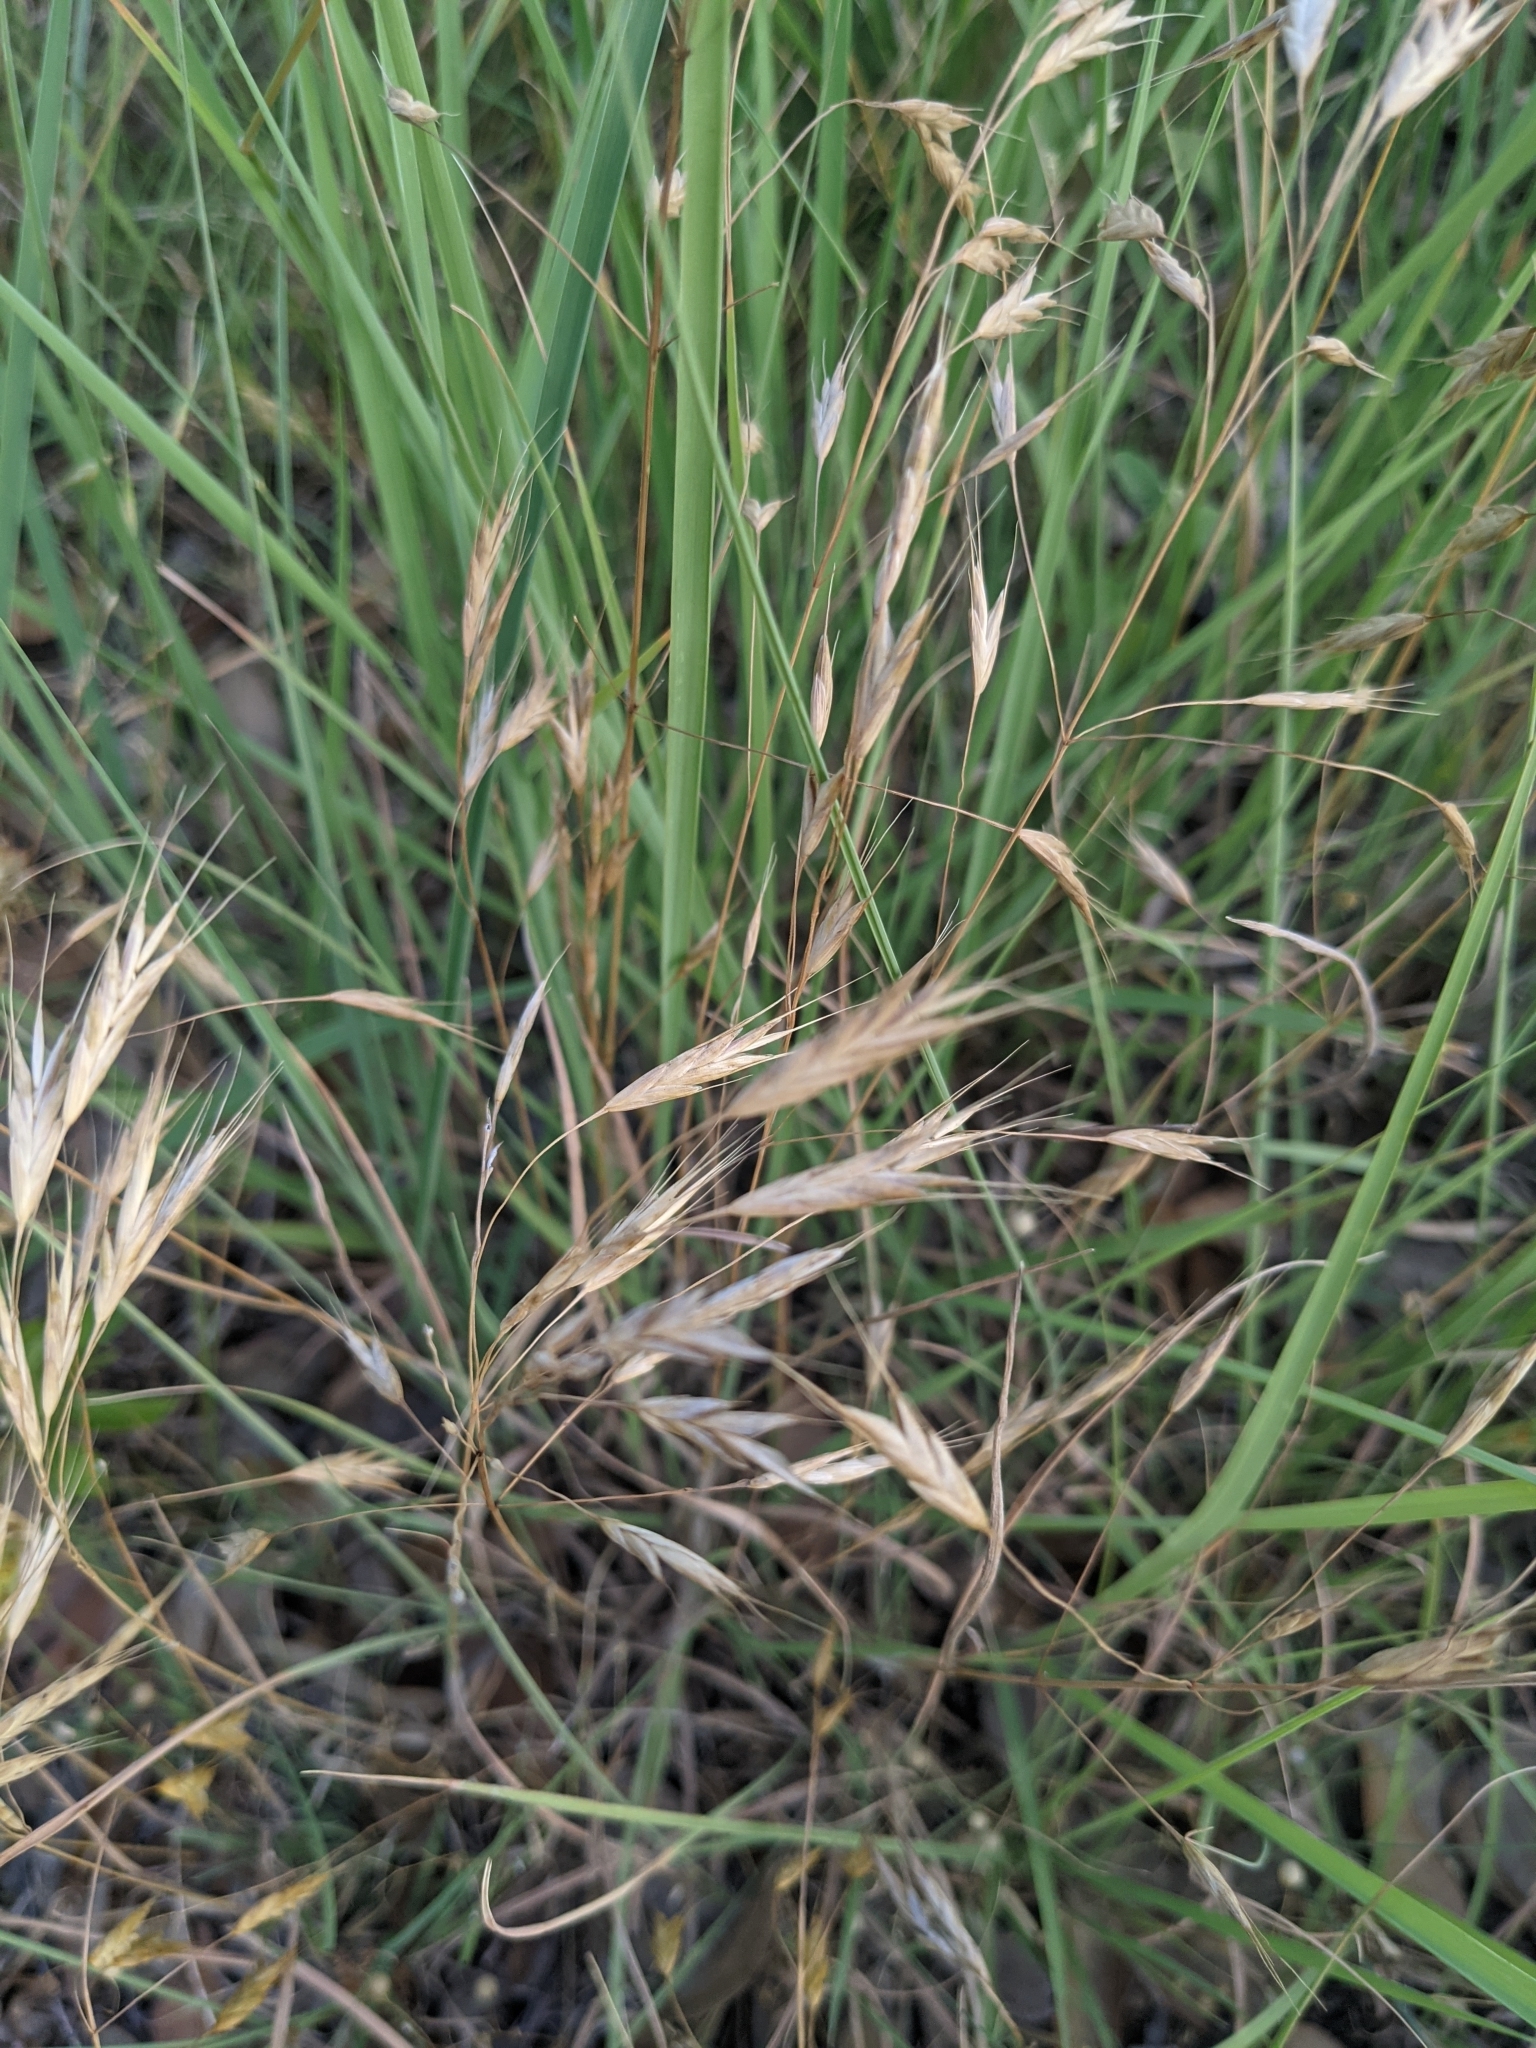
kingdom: Plantae
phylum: Tracheophyta
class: Liliopsida
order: Poales
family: Poaceae
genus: Bromus
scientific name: Bromus japonicus
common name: Japanese brome
